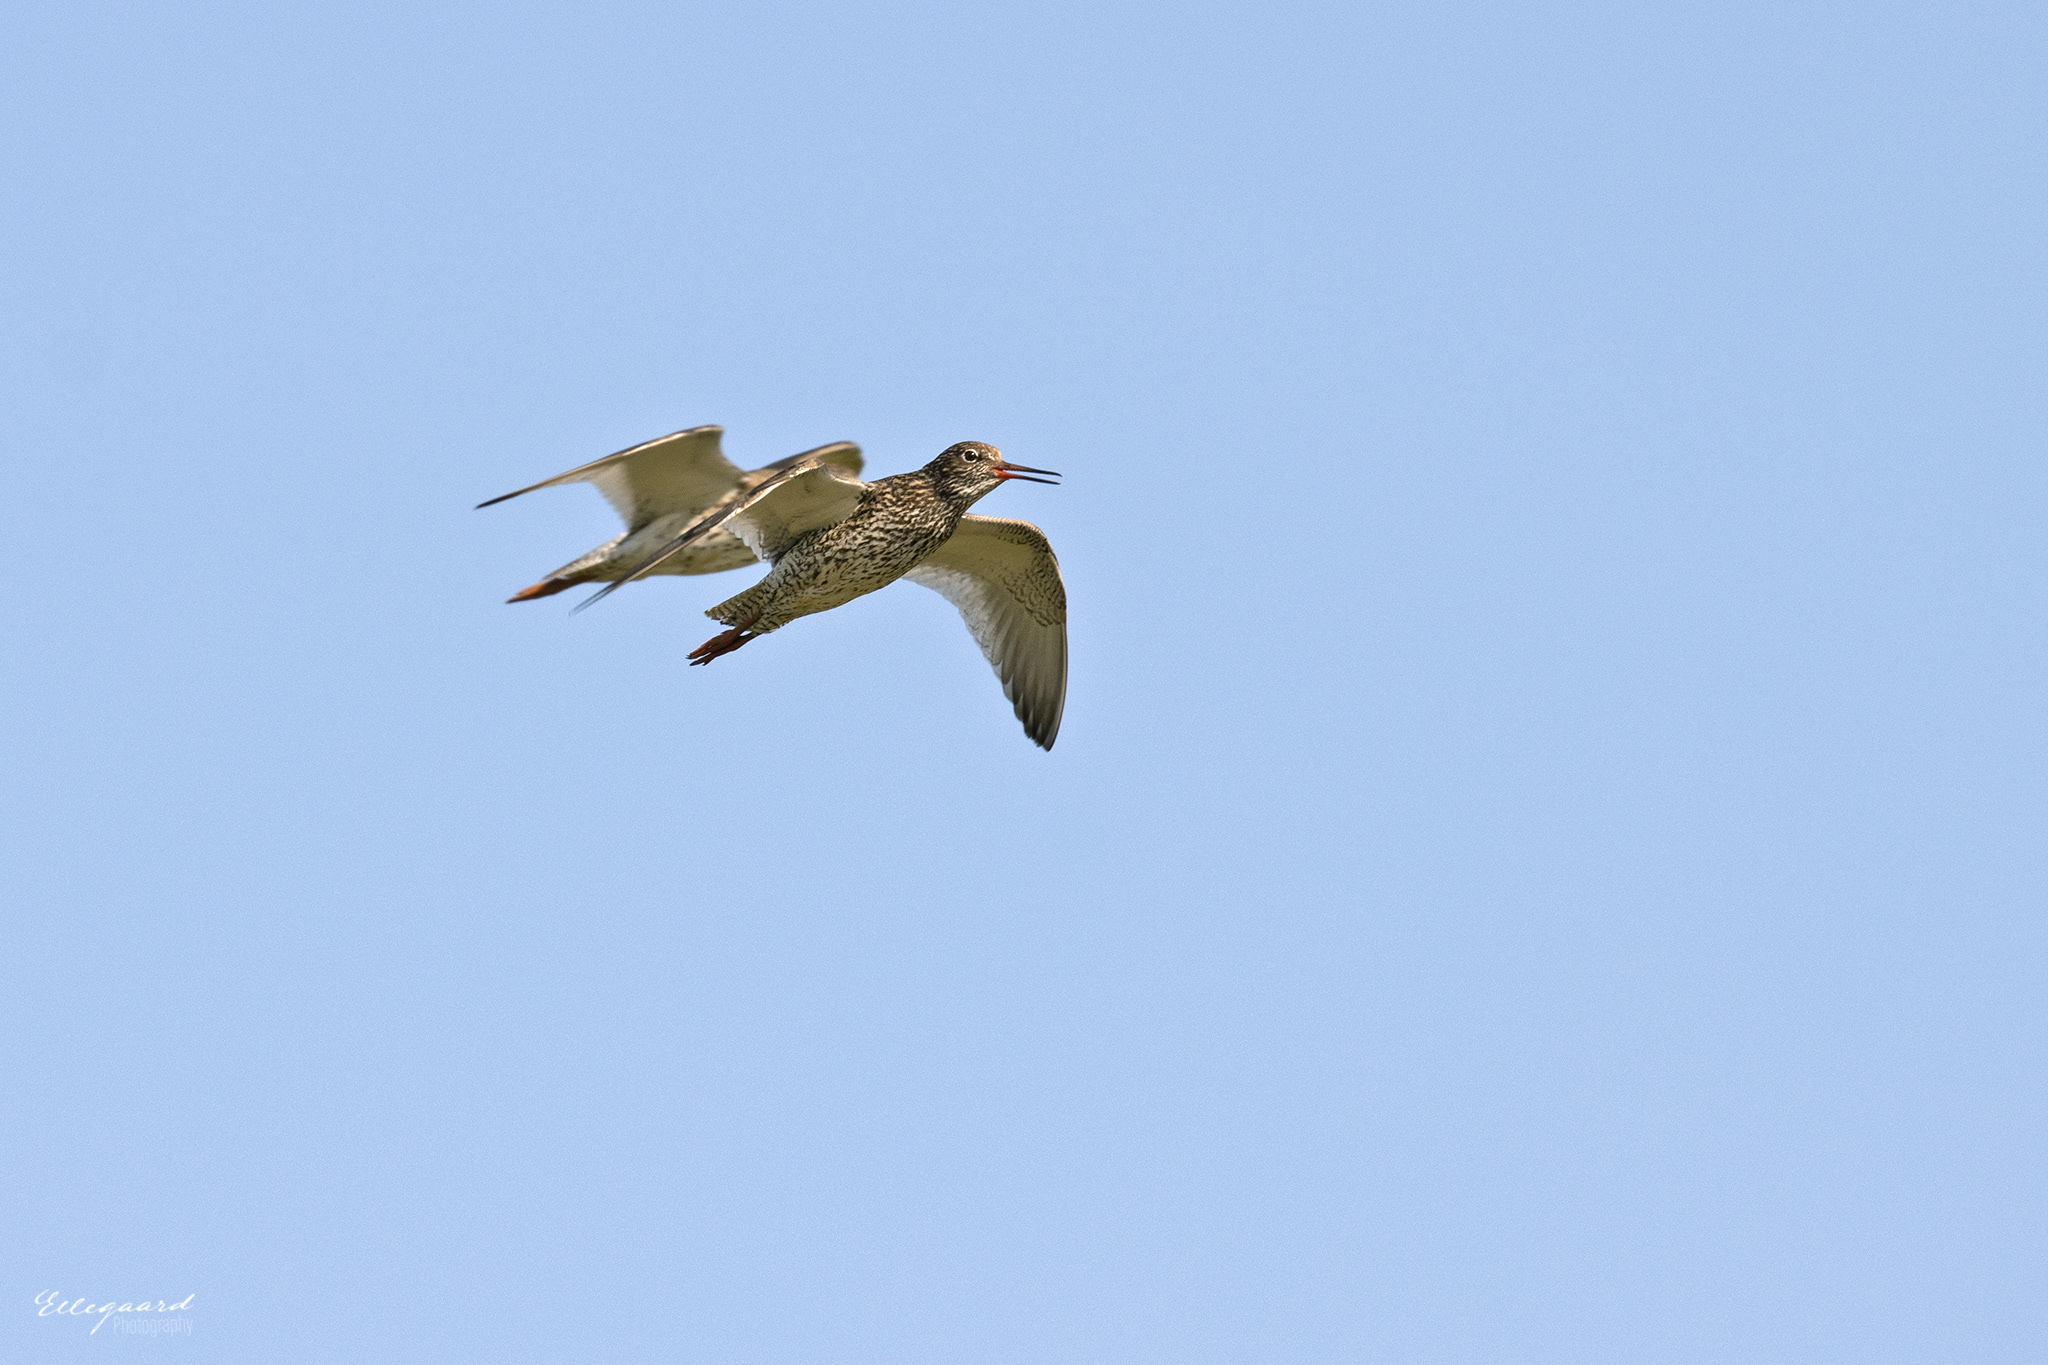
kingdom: Animalia
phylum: Chordata
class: Aves
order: Charadriiformes
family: Scolopacidae
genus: Tringa
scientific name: Tringa totanus
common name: Common redshank
